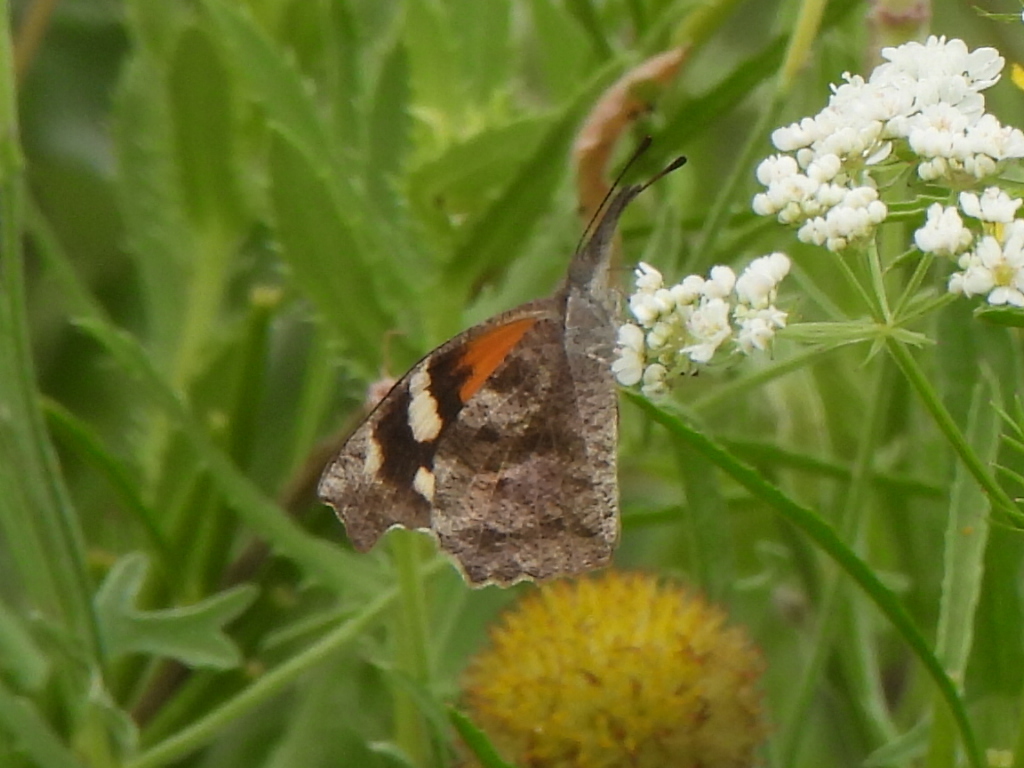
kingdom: Animalia
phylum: Arthropoda
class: Insecta
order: Lepidoptera
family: Nymphalidae
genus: Libytheana
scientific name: Libytheana carinenta
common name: American snout
